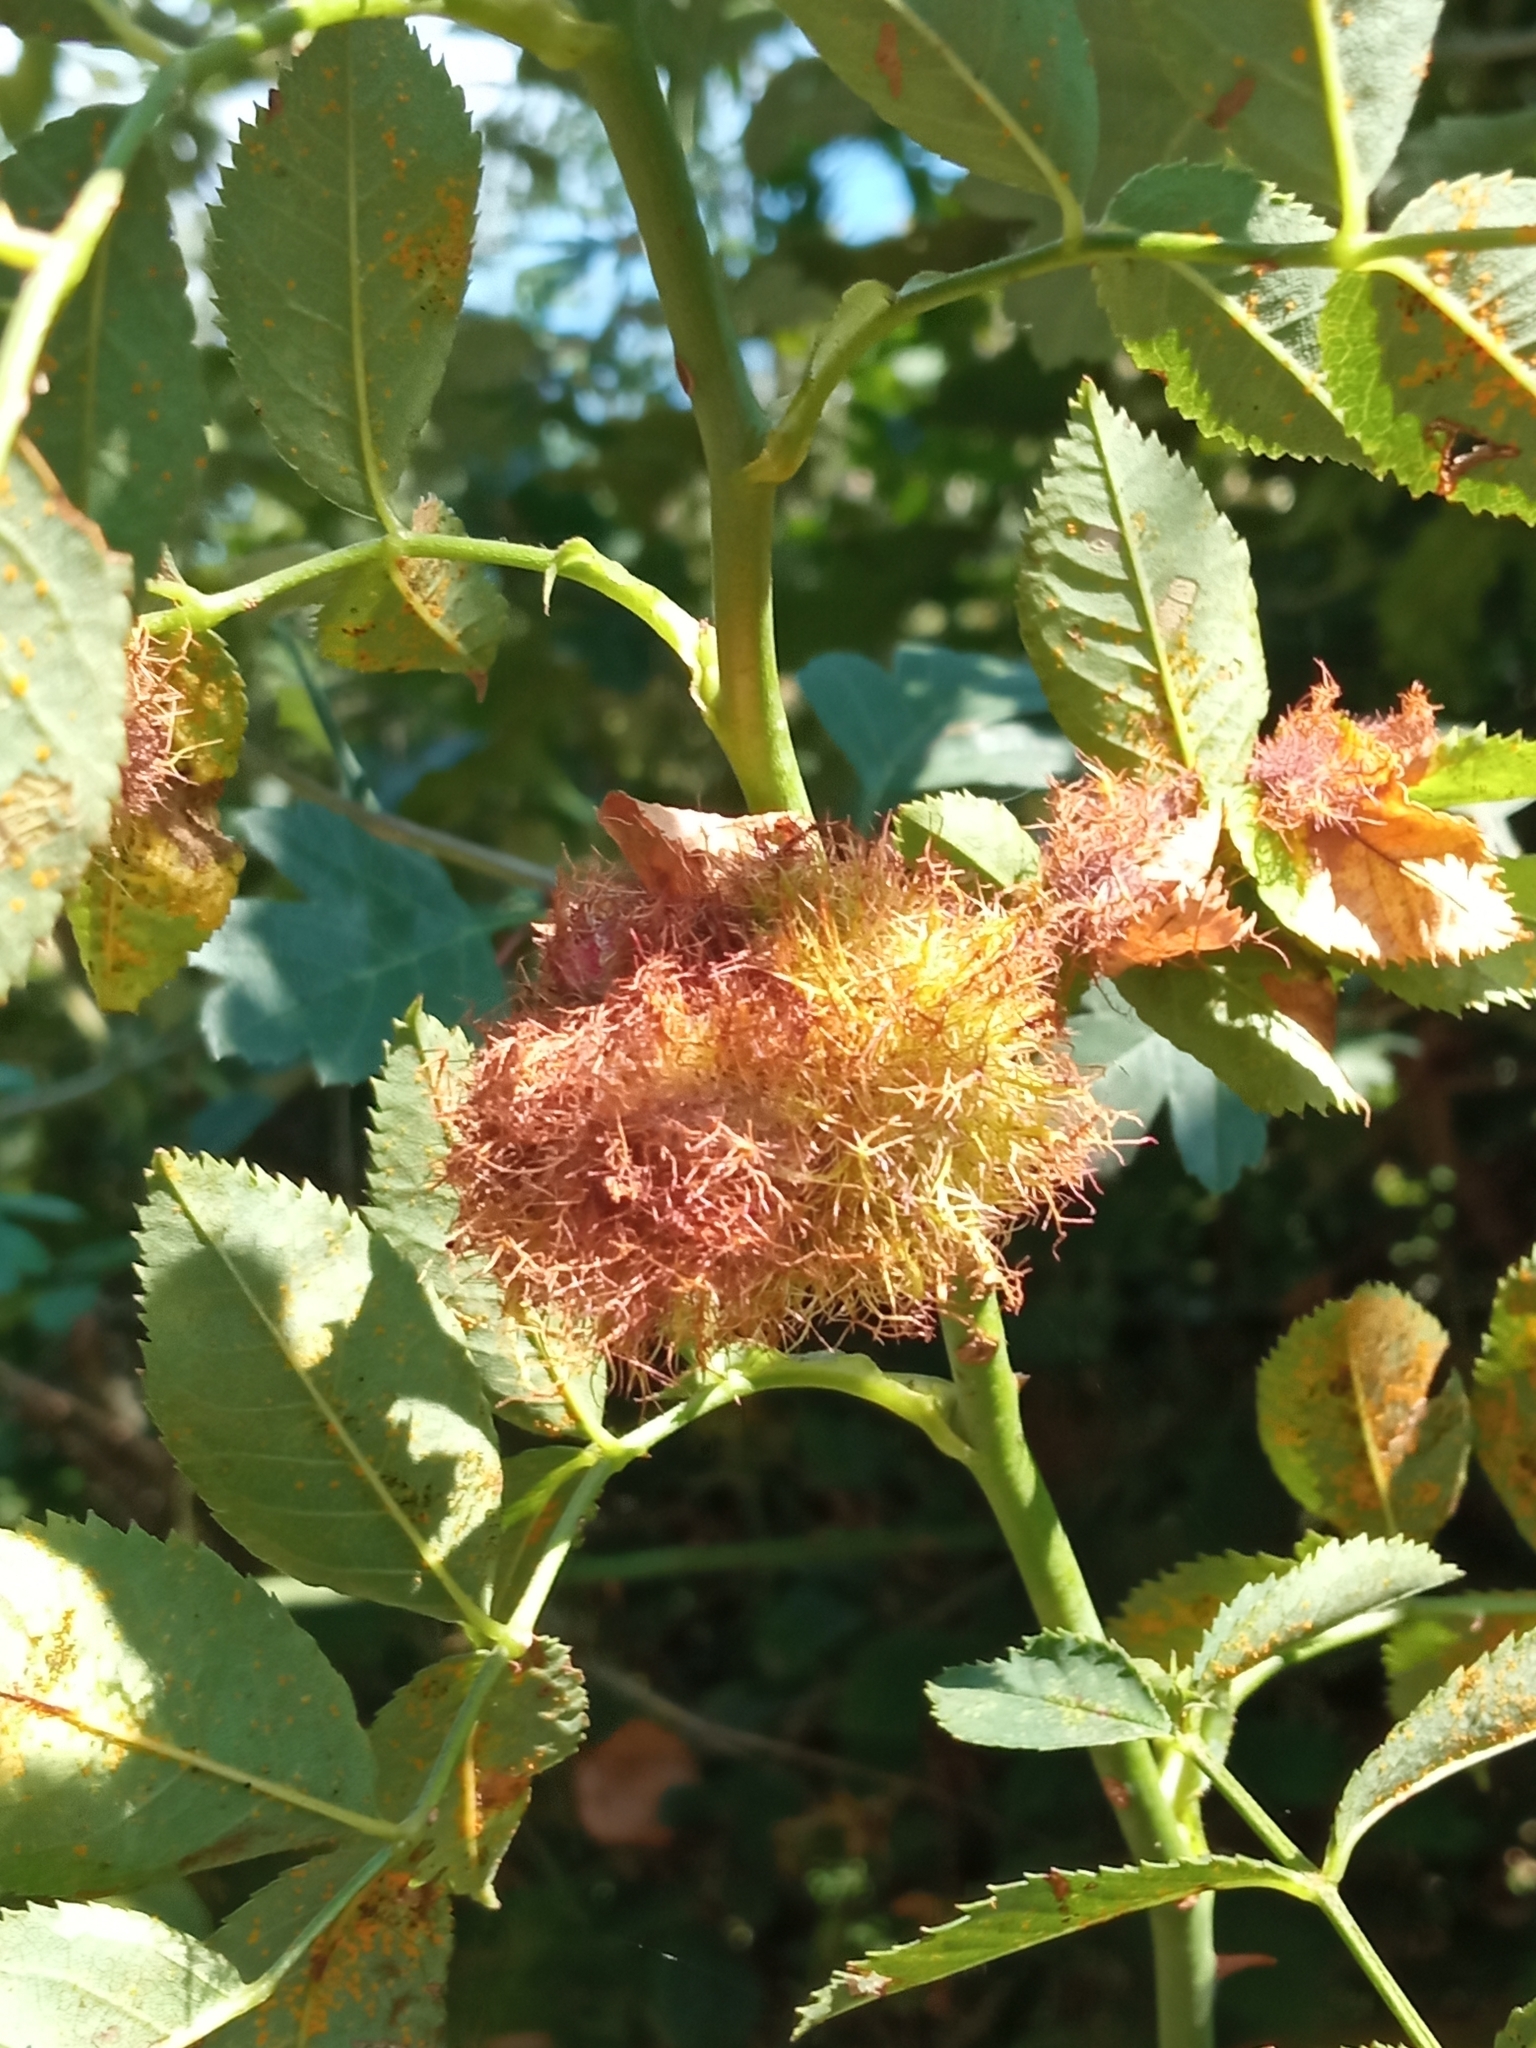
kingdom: Animalia
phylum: Arthropoda
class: Insecta
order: Hymenoptera
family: Cynipidae
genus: Diplolepis
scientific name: Diplolepis rosae
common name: Bedeguar gall
